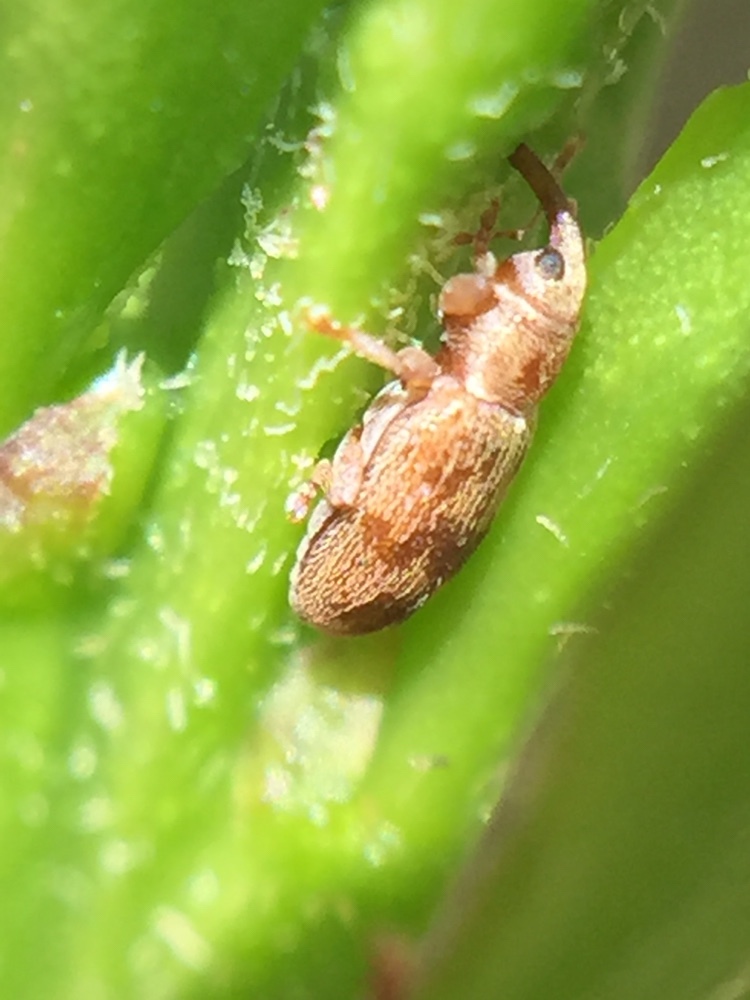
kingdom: Animalia
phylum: Arthropoda
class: Insecta
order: Coleoptera
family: Curculionidae
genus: Epamoebus
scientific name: Epamoebus ziczac
